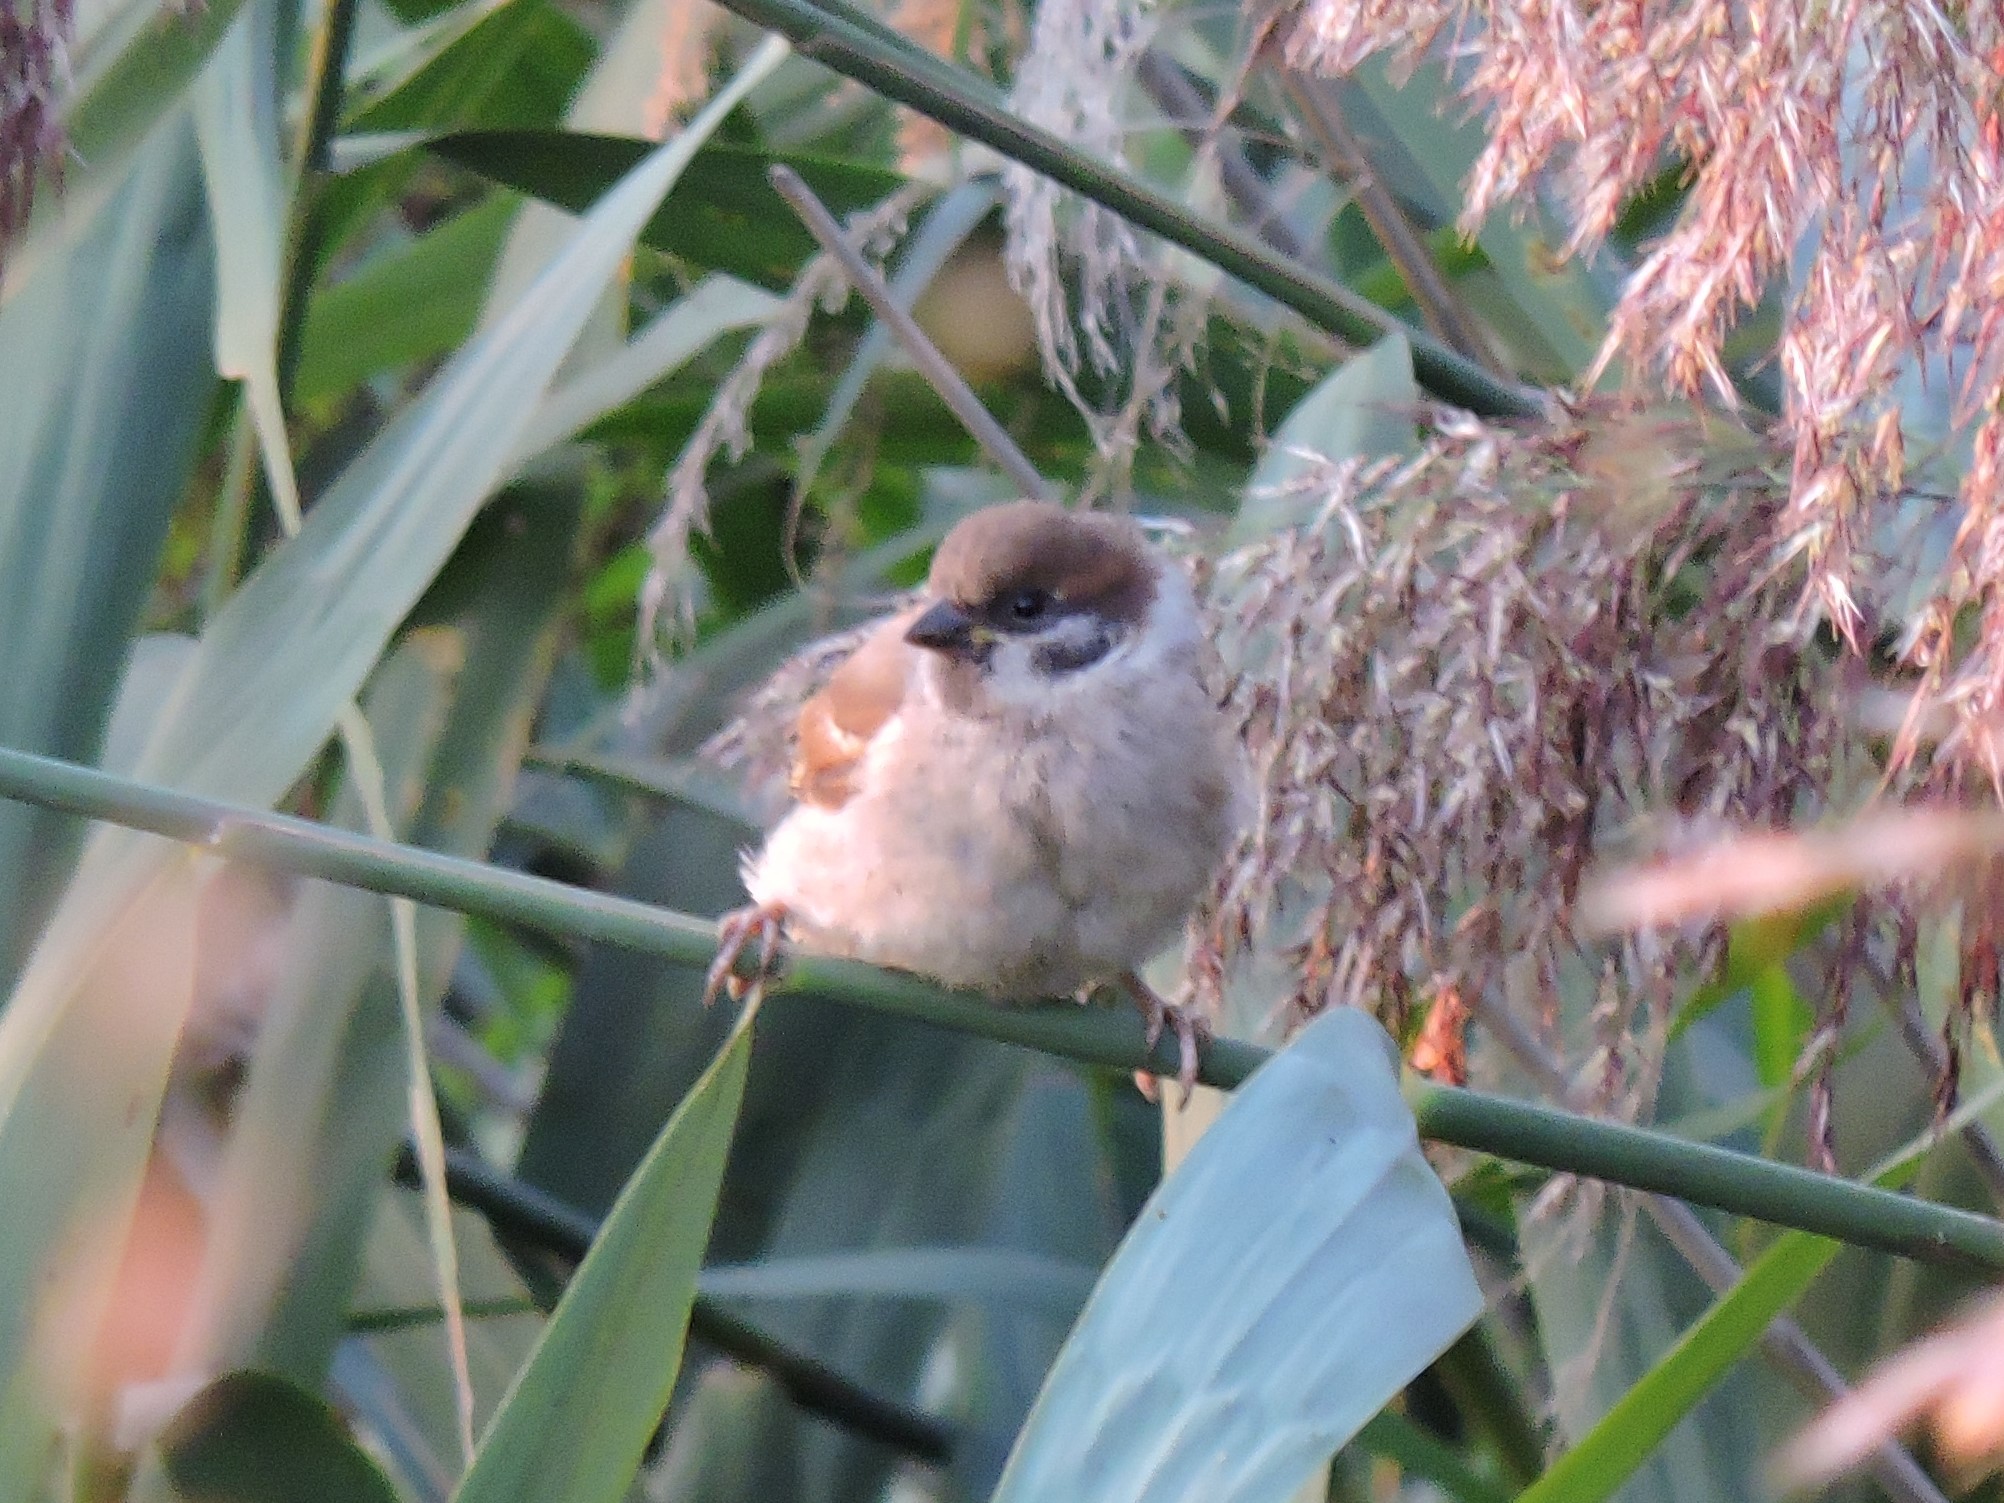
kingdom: Animalia
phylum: Chordata
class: Aves
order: Passeriformes
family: Passeridae
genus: Passer
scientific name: Passer montanus
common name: Eurasian tree sparrow
